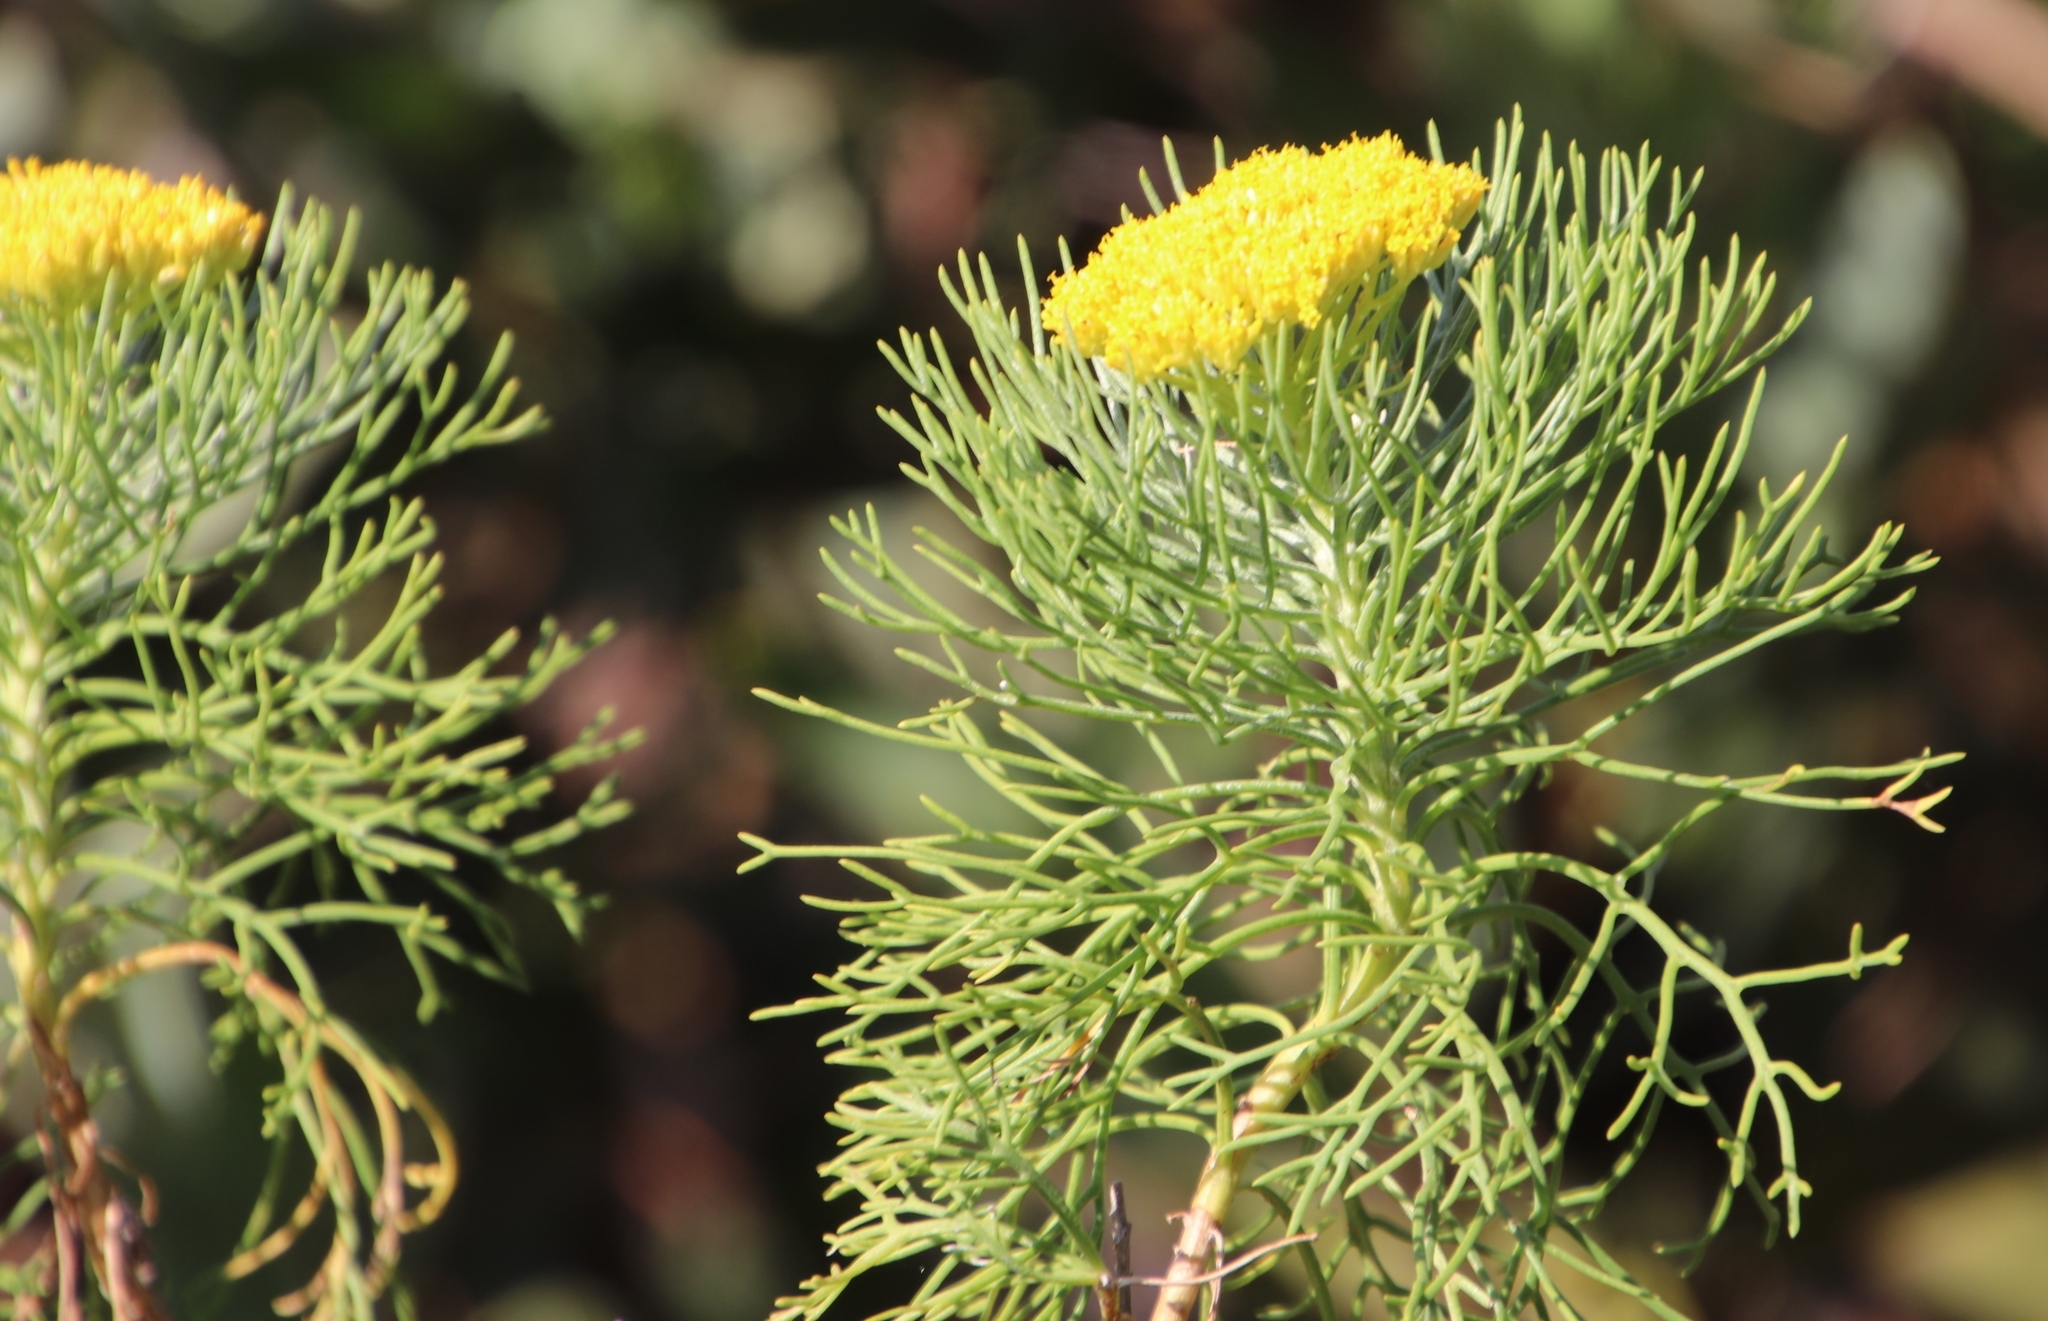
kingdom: Plantae
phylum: Tracheophyta
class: Magnoliopsida
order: Asterales
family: Asteraceae
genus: Hymenolepis
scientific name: Hymenolepis crithmifolia
